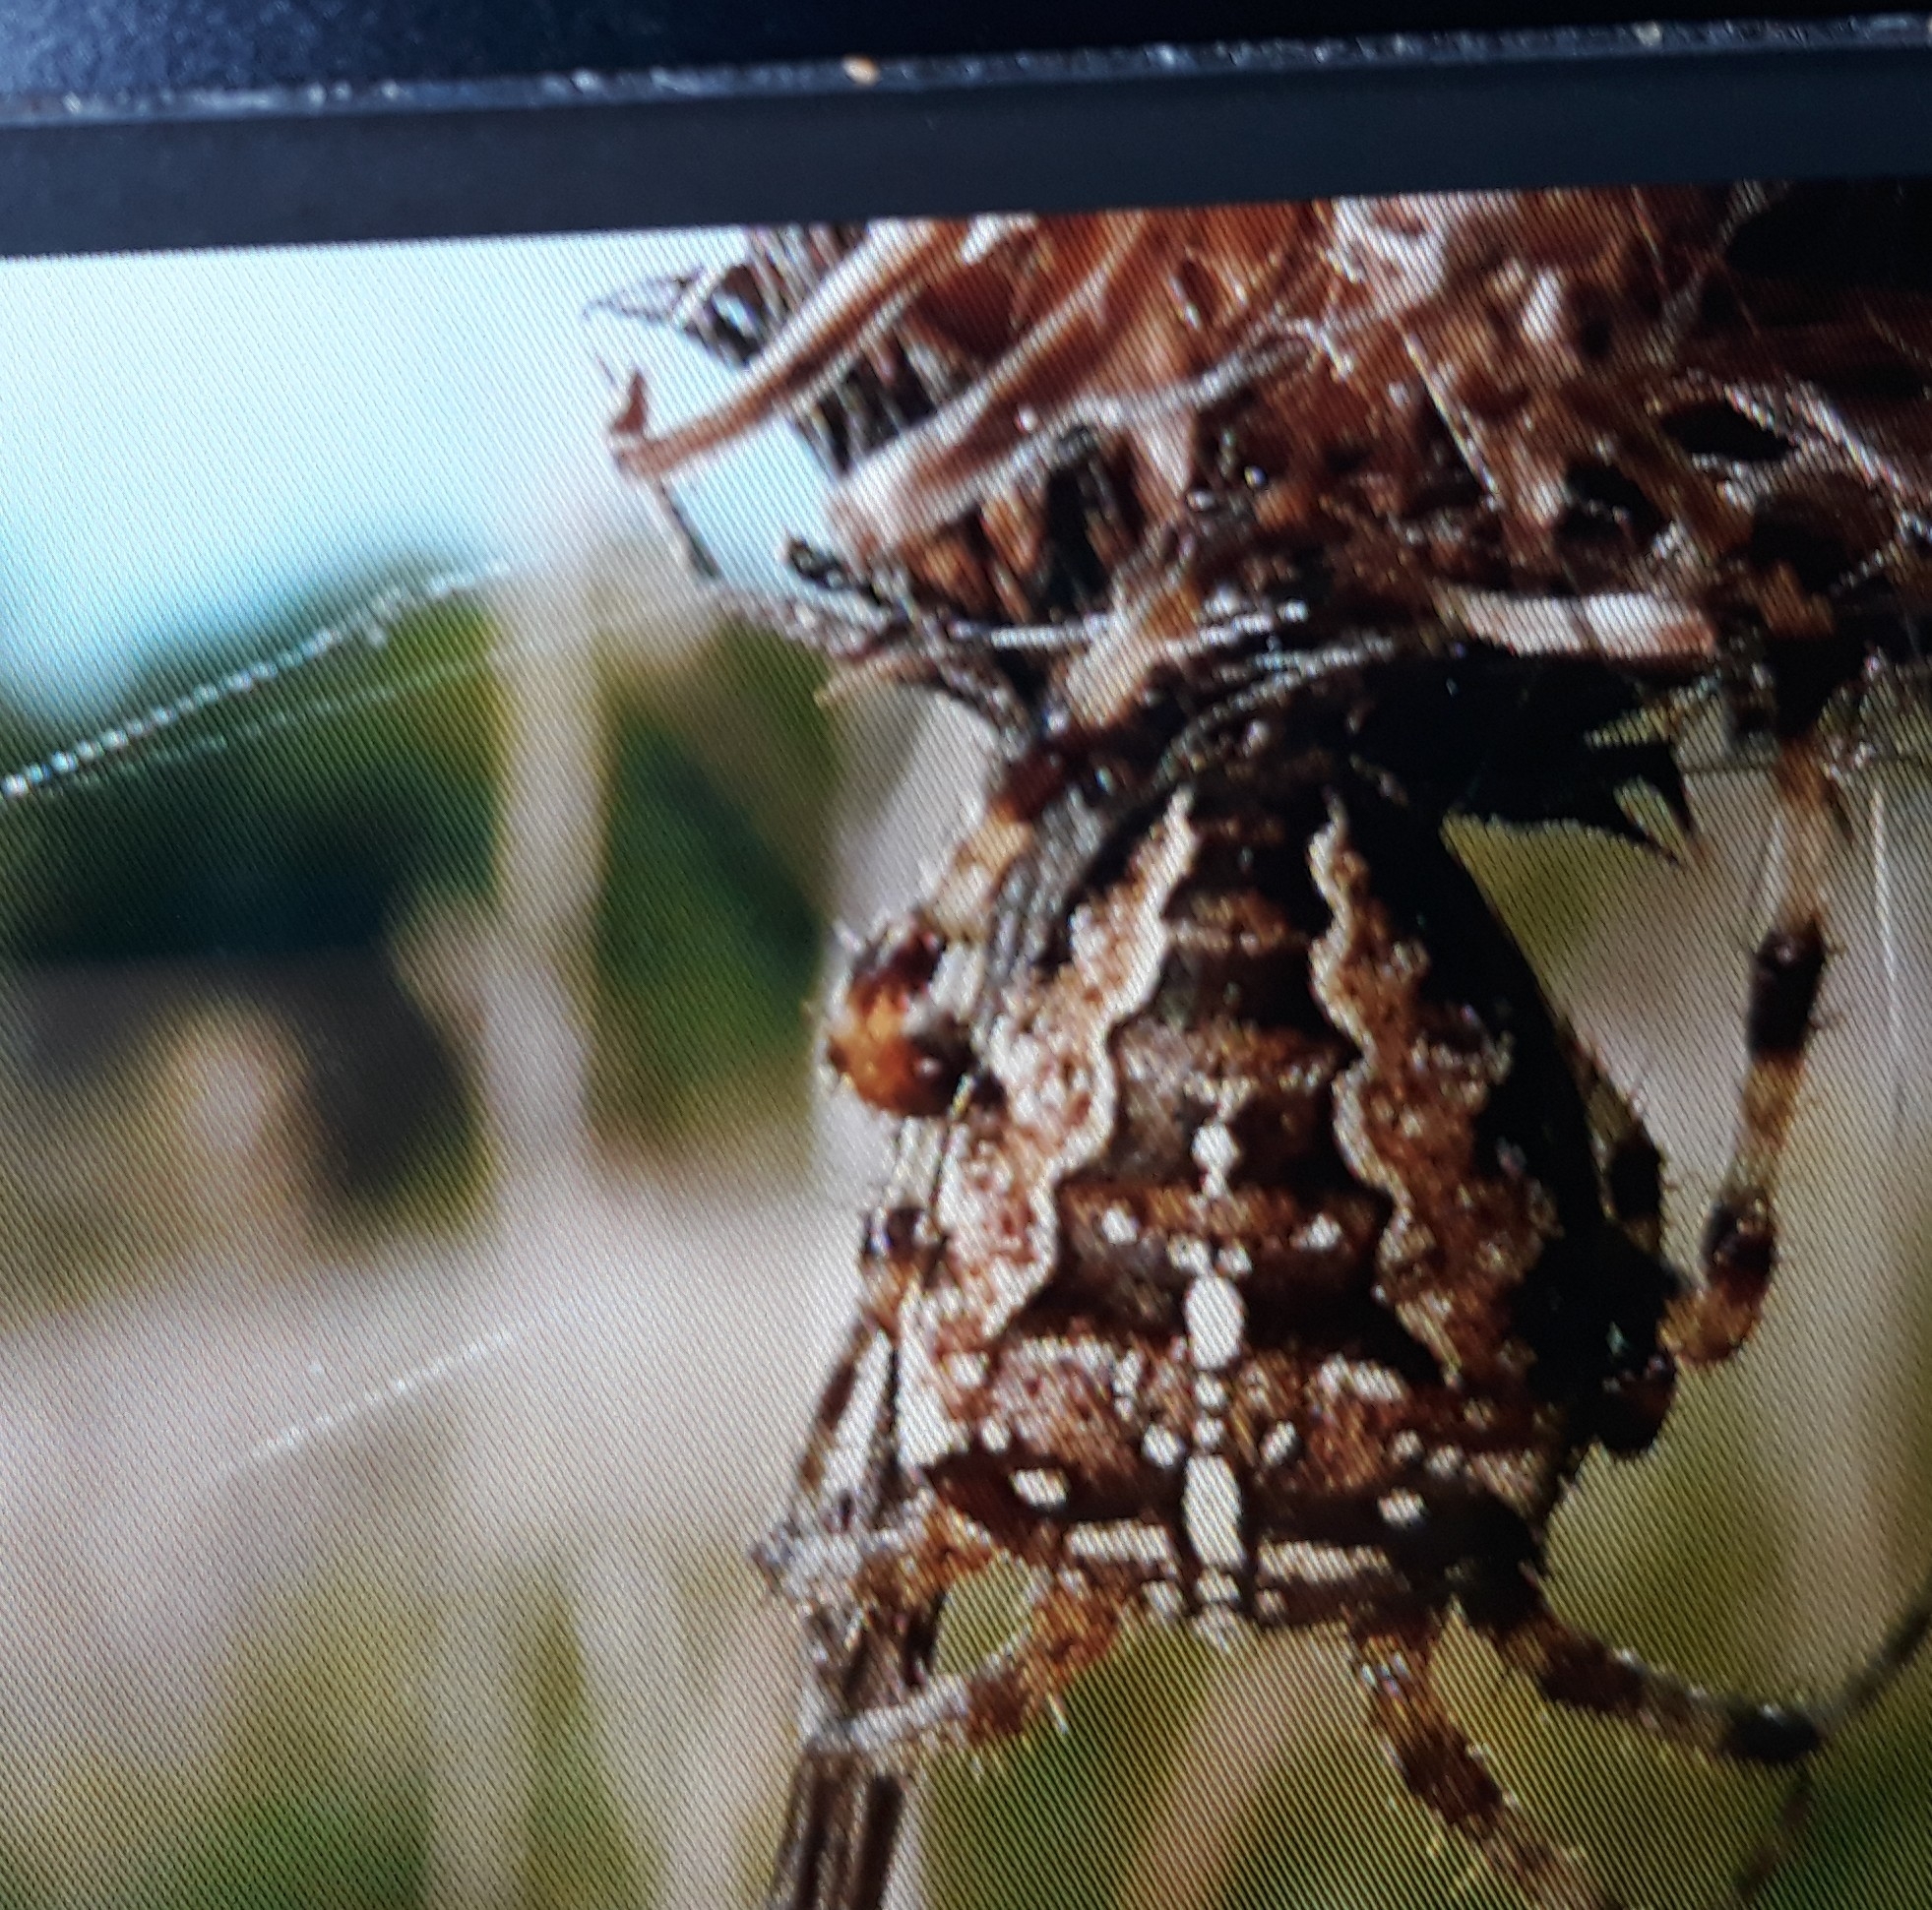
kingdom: Animalia
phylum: Arthropoda
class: Arachnida
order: Araneae
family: Araneidae
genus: Araneus
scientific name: Araneus diadematus
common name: Cross orbweaver
